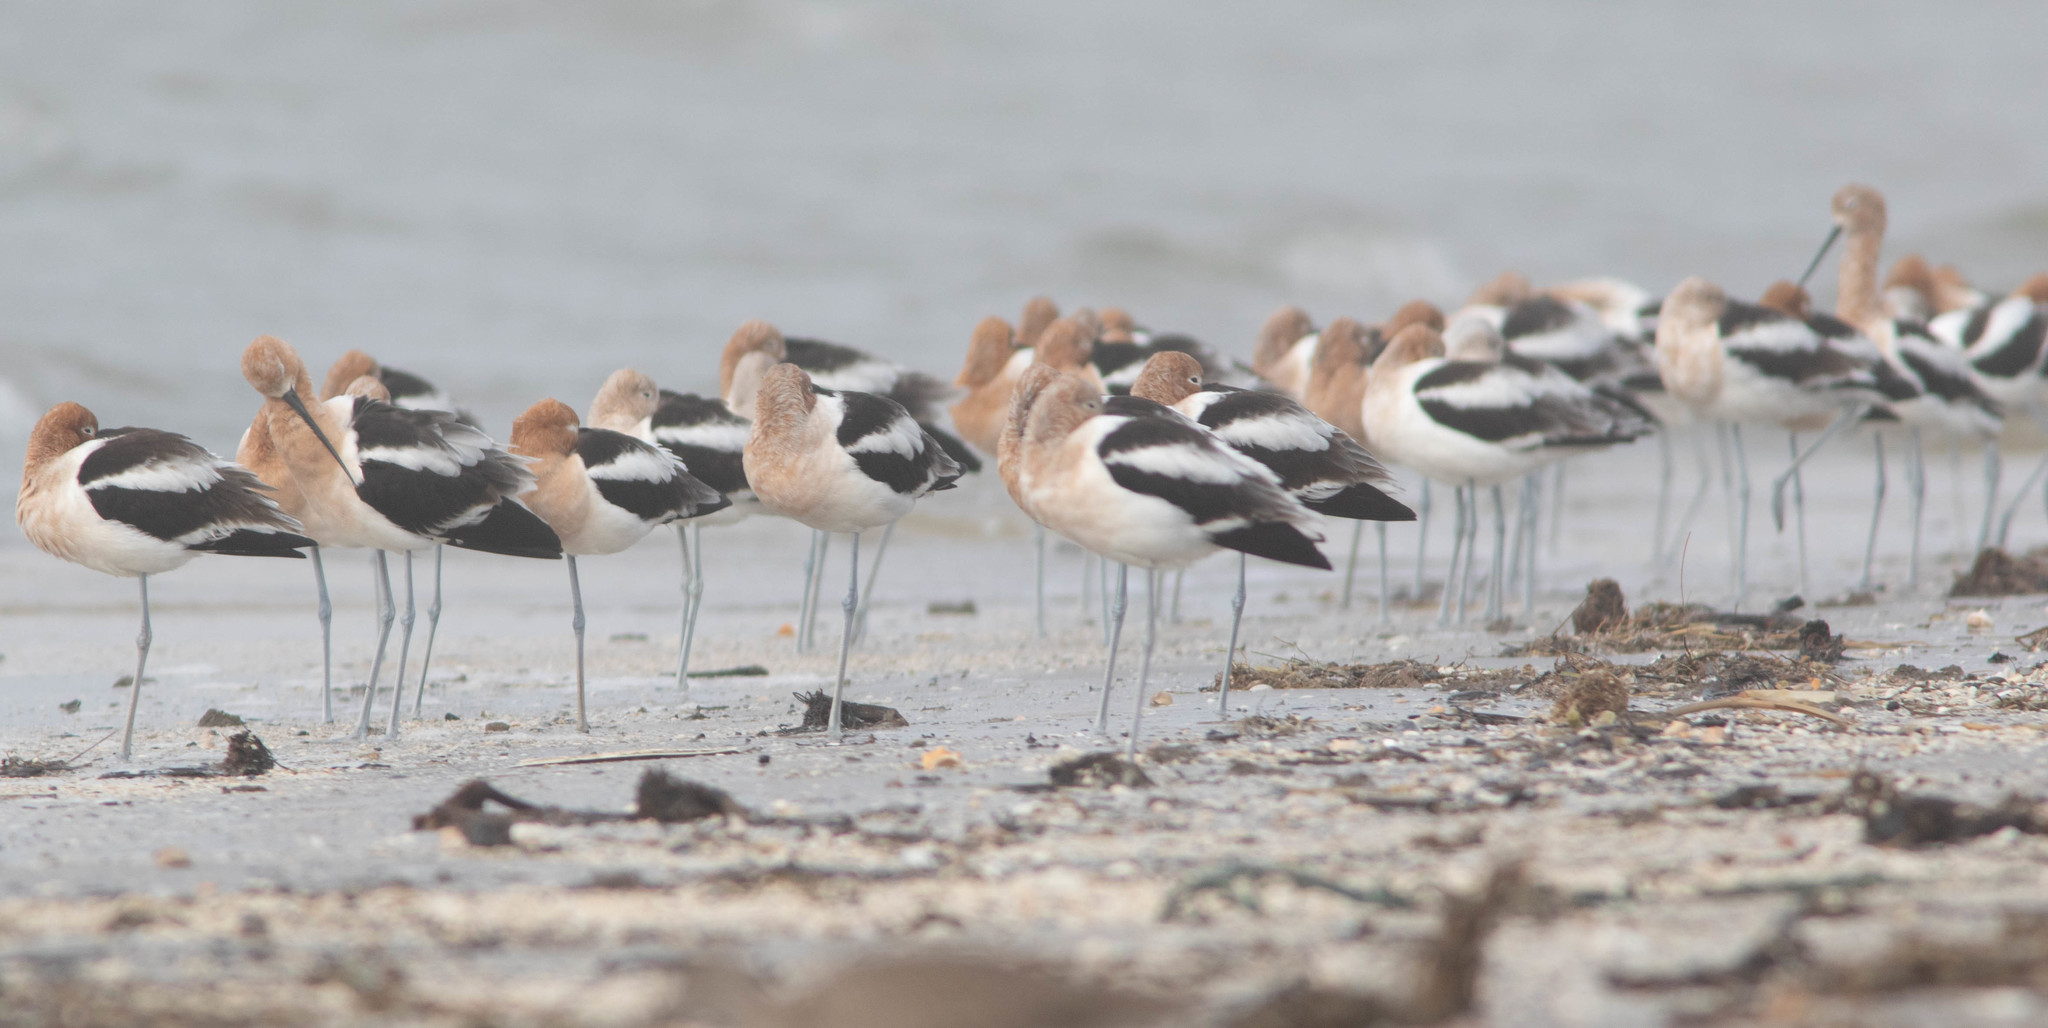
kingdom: Animalia
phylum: Chordata
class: Aves
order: Charadriiformes
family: Recurvirostridae
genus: Recurvirostra
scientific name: Recurvirostra americana
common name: American avocet
